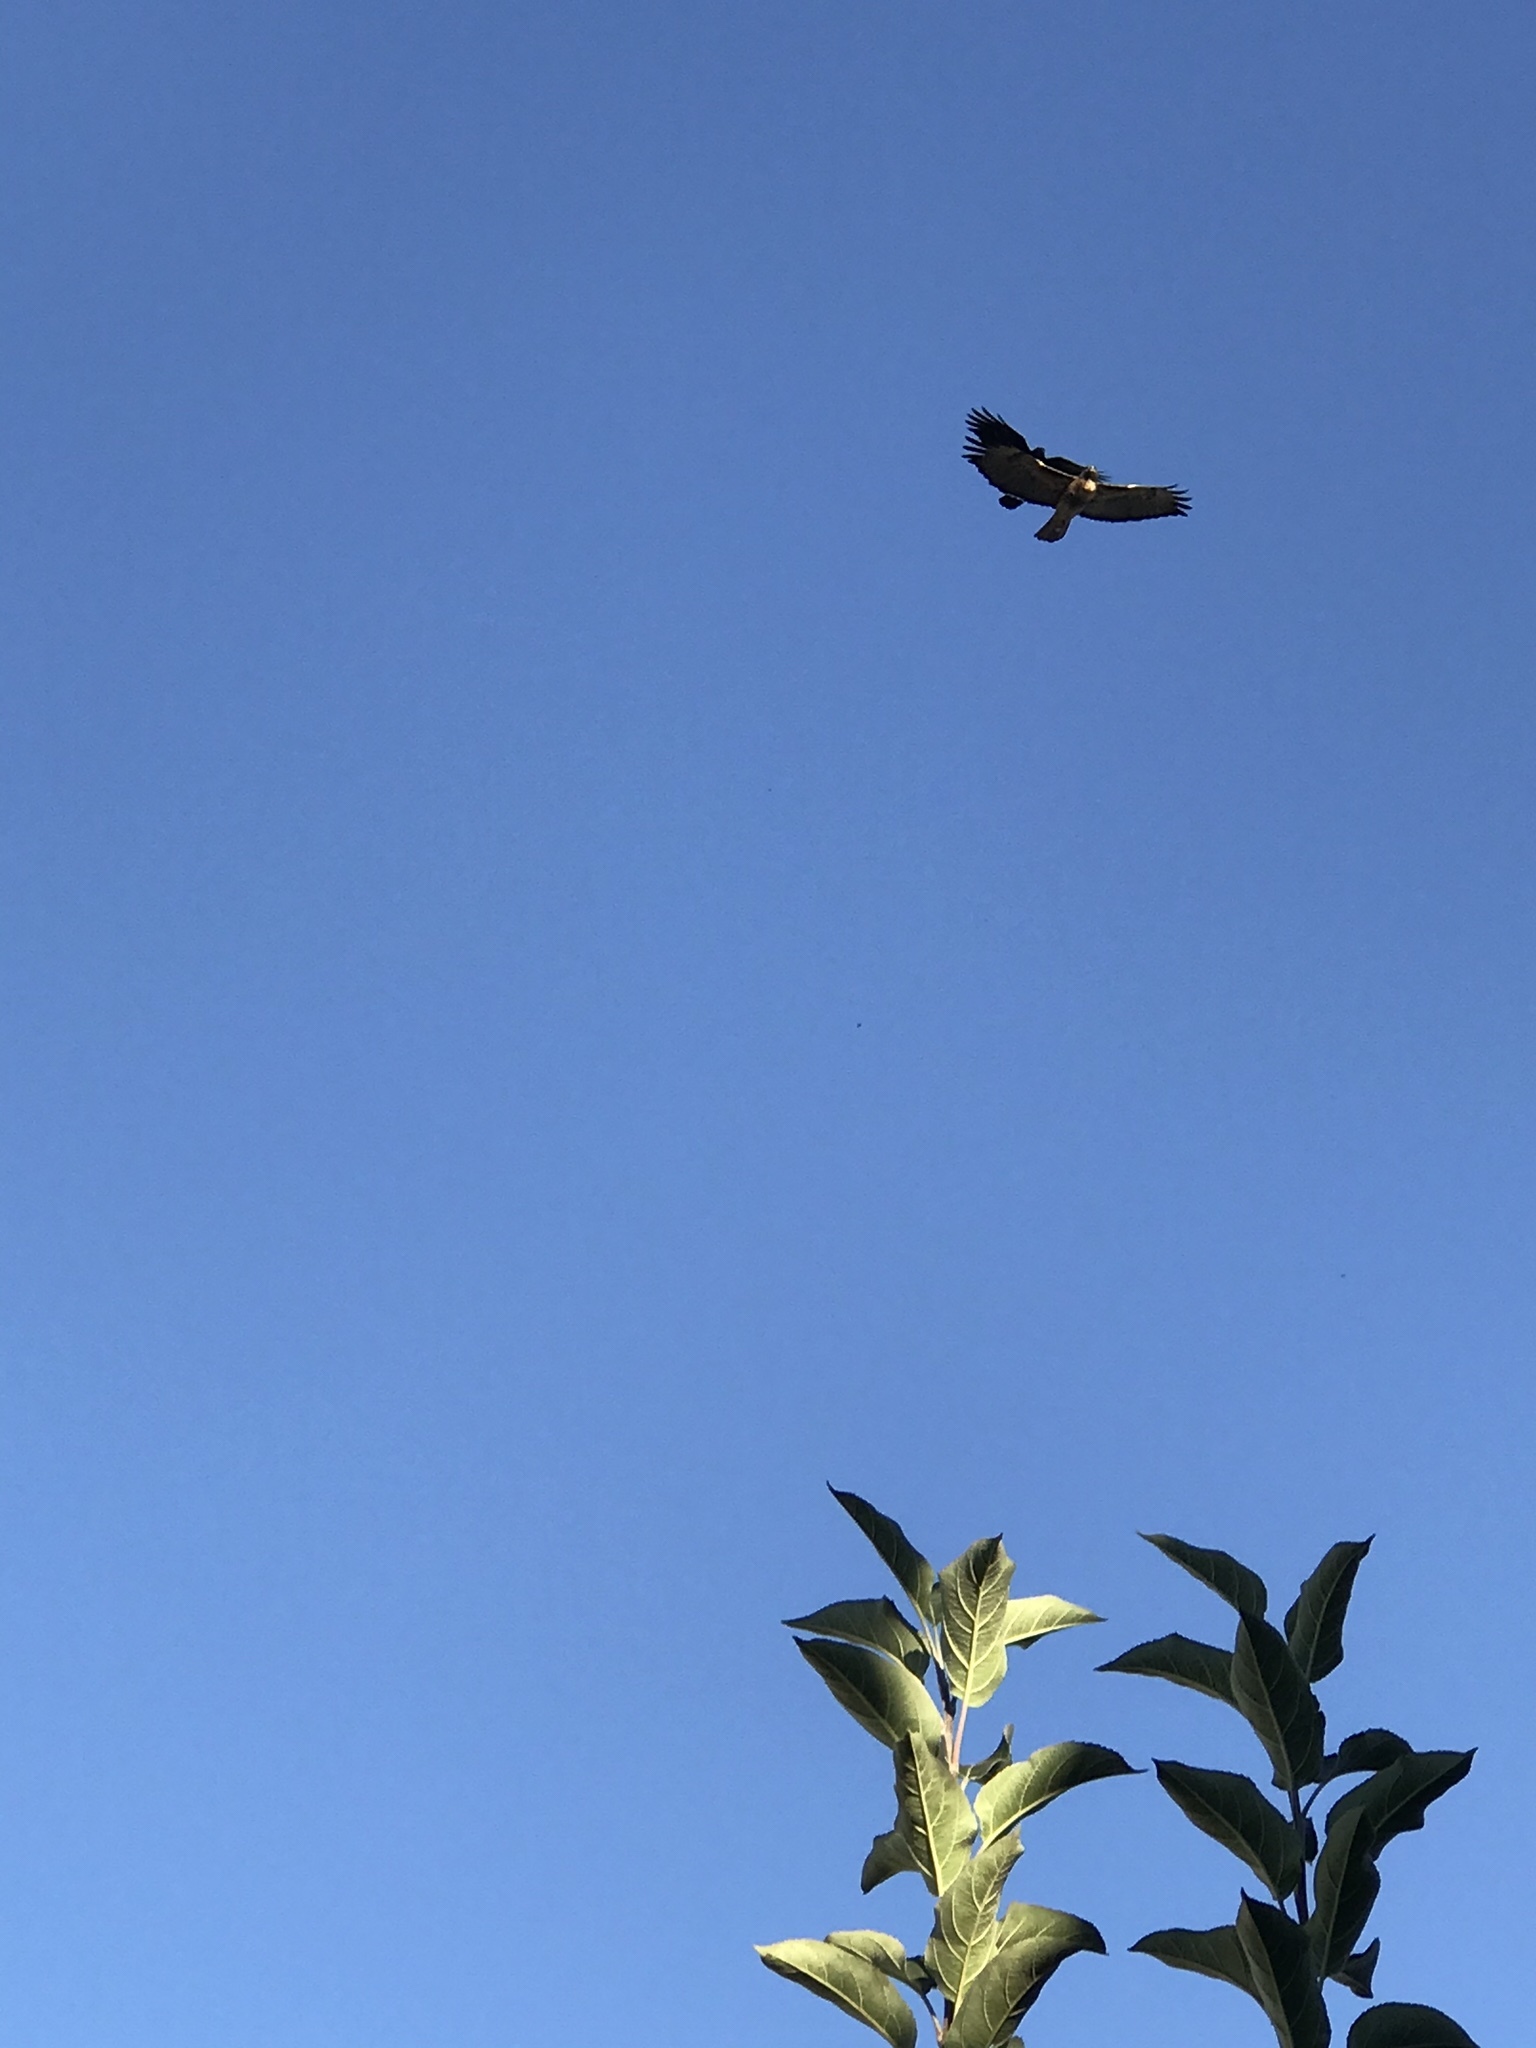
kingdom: Animalia
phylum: Chordata
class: Aves
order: Accipitriformes
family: Accipitridae
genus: Buteo
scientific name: Buteo jamaicensis
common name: Red-tailed hawk
